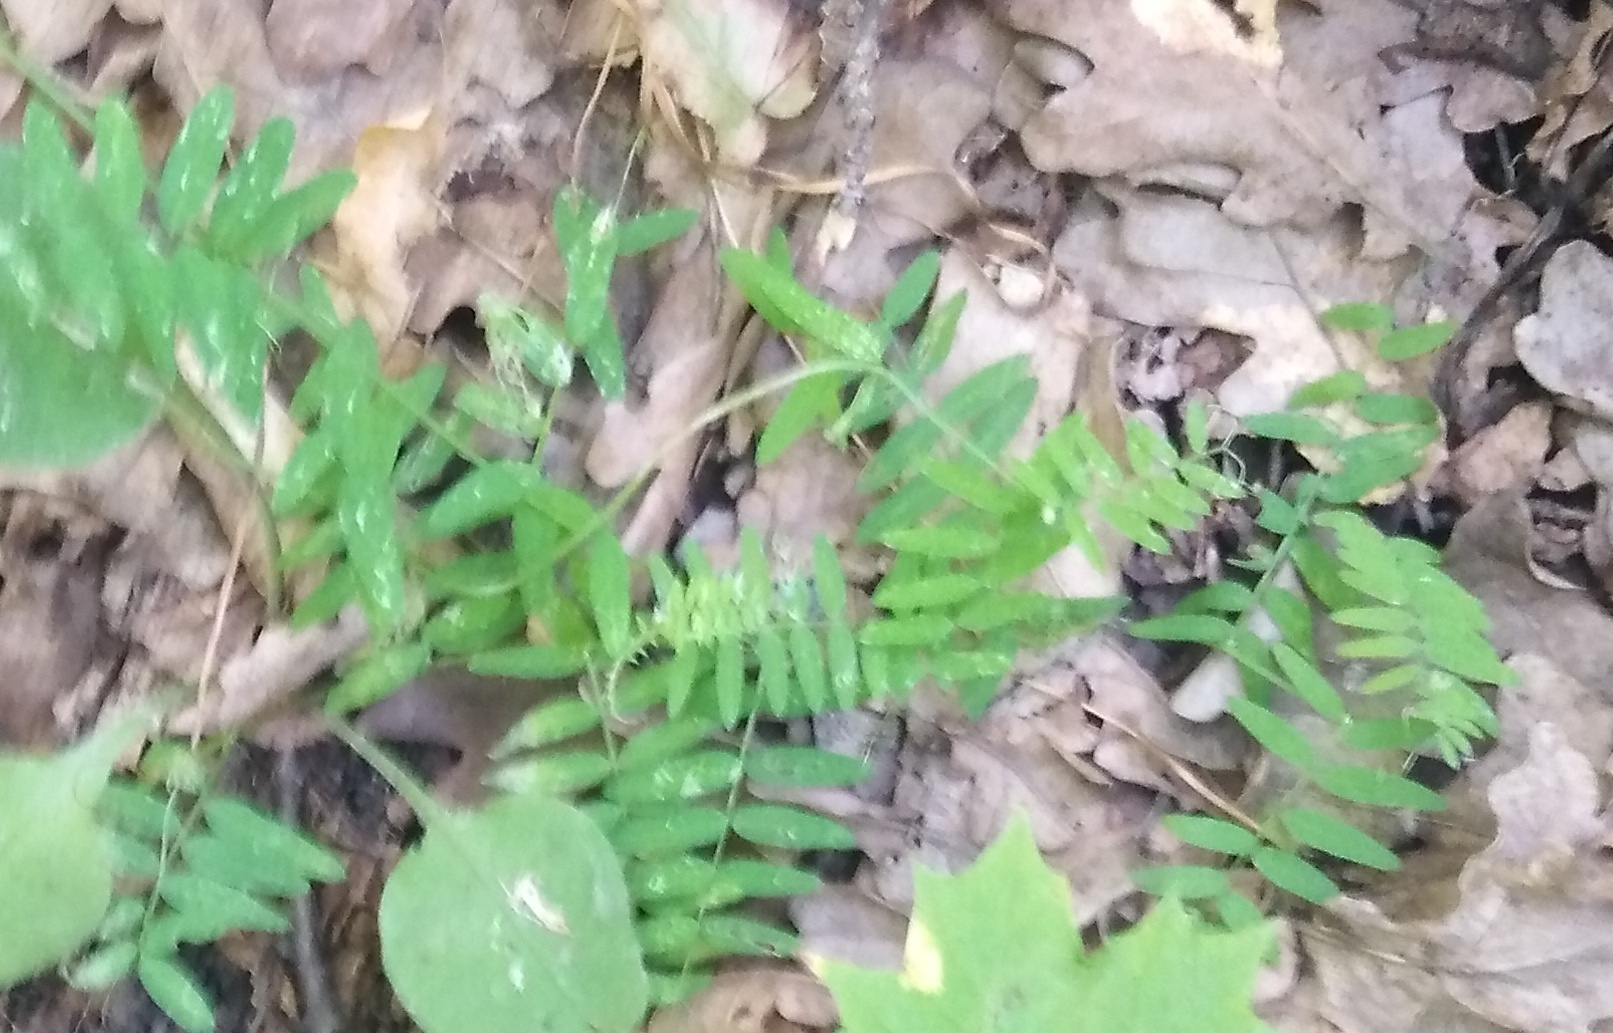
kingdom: Plantae
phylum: Tracheophyta
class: Magnoliopsida
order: Fabales
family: Fabaceae
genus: Vicia
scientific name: Vicia cracca
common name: Bird vetch
